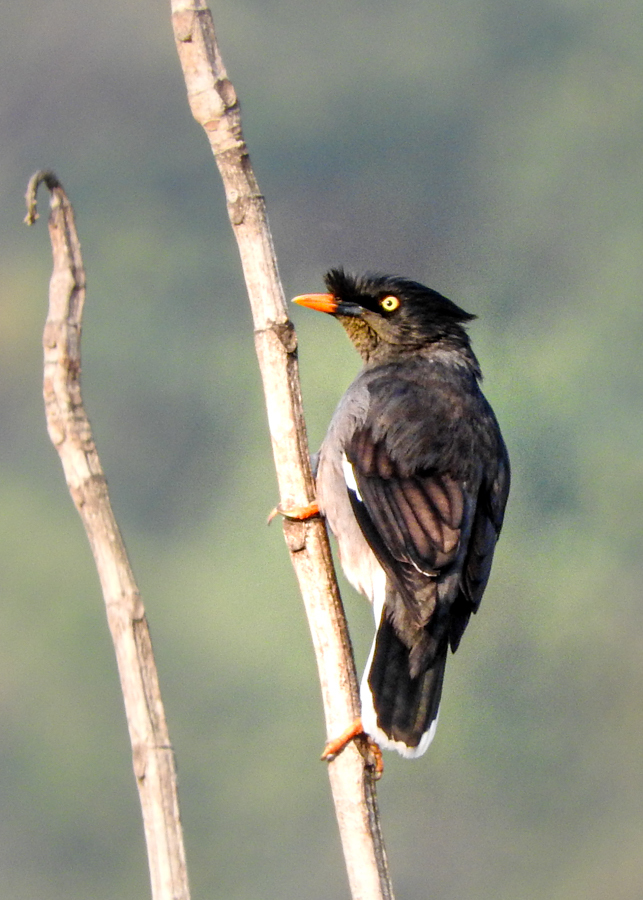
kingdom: Animalia
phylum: Chordata
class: Aves
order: Passeriformes
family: Sturnidae
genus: Acridotheres
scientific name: Acridotheres fuscus
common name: Jungle myna
